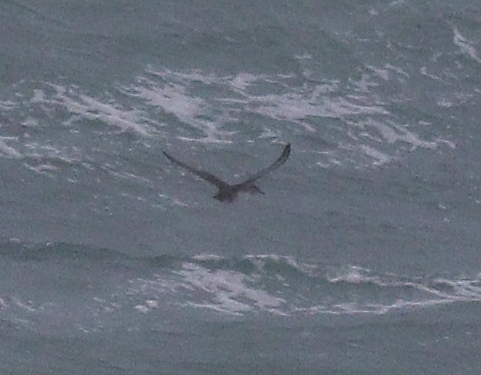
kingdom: Animalia
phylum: Chordata
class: Aves
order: Procellariiformes
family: Procellariidae
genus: Puffinus
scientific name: Puffinus mauretanicus
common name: Balearic shearwater
